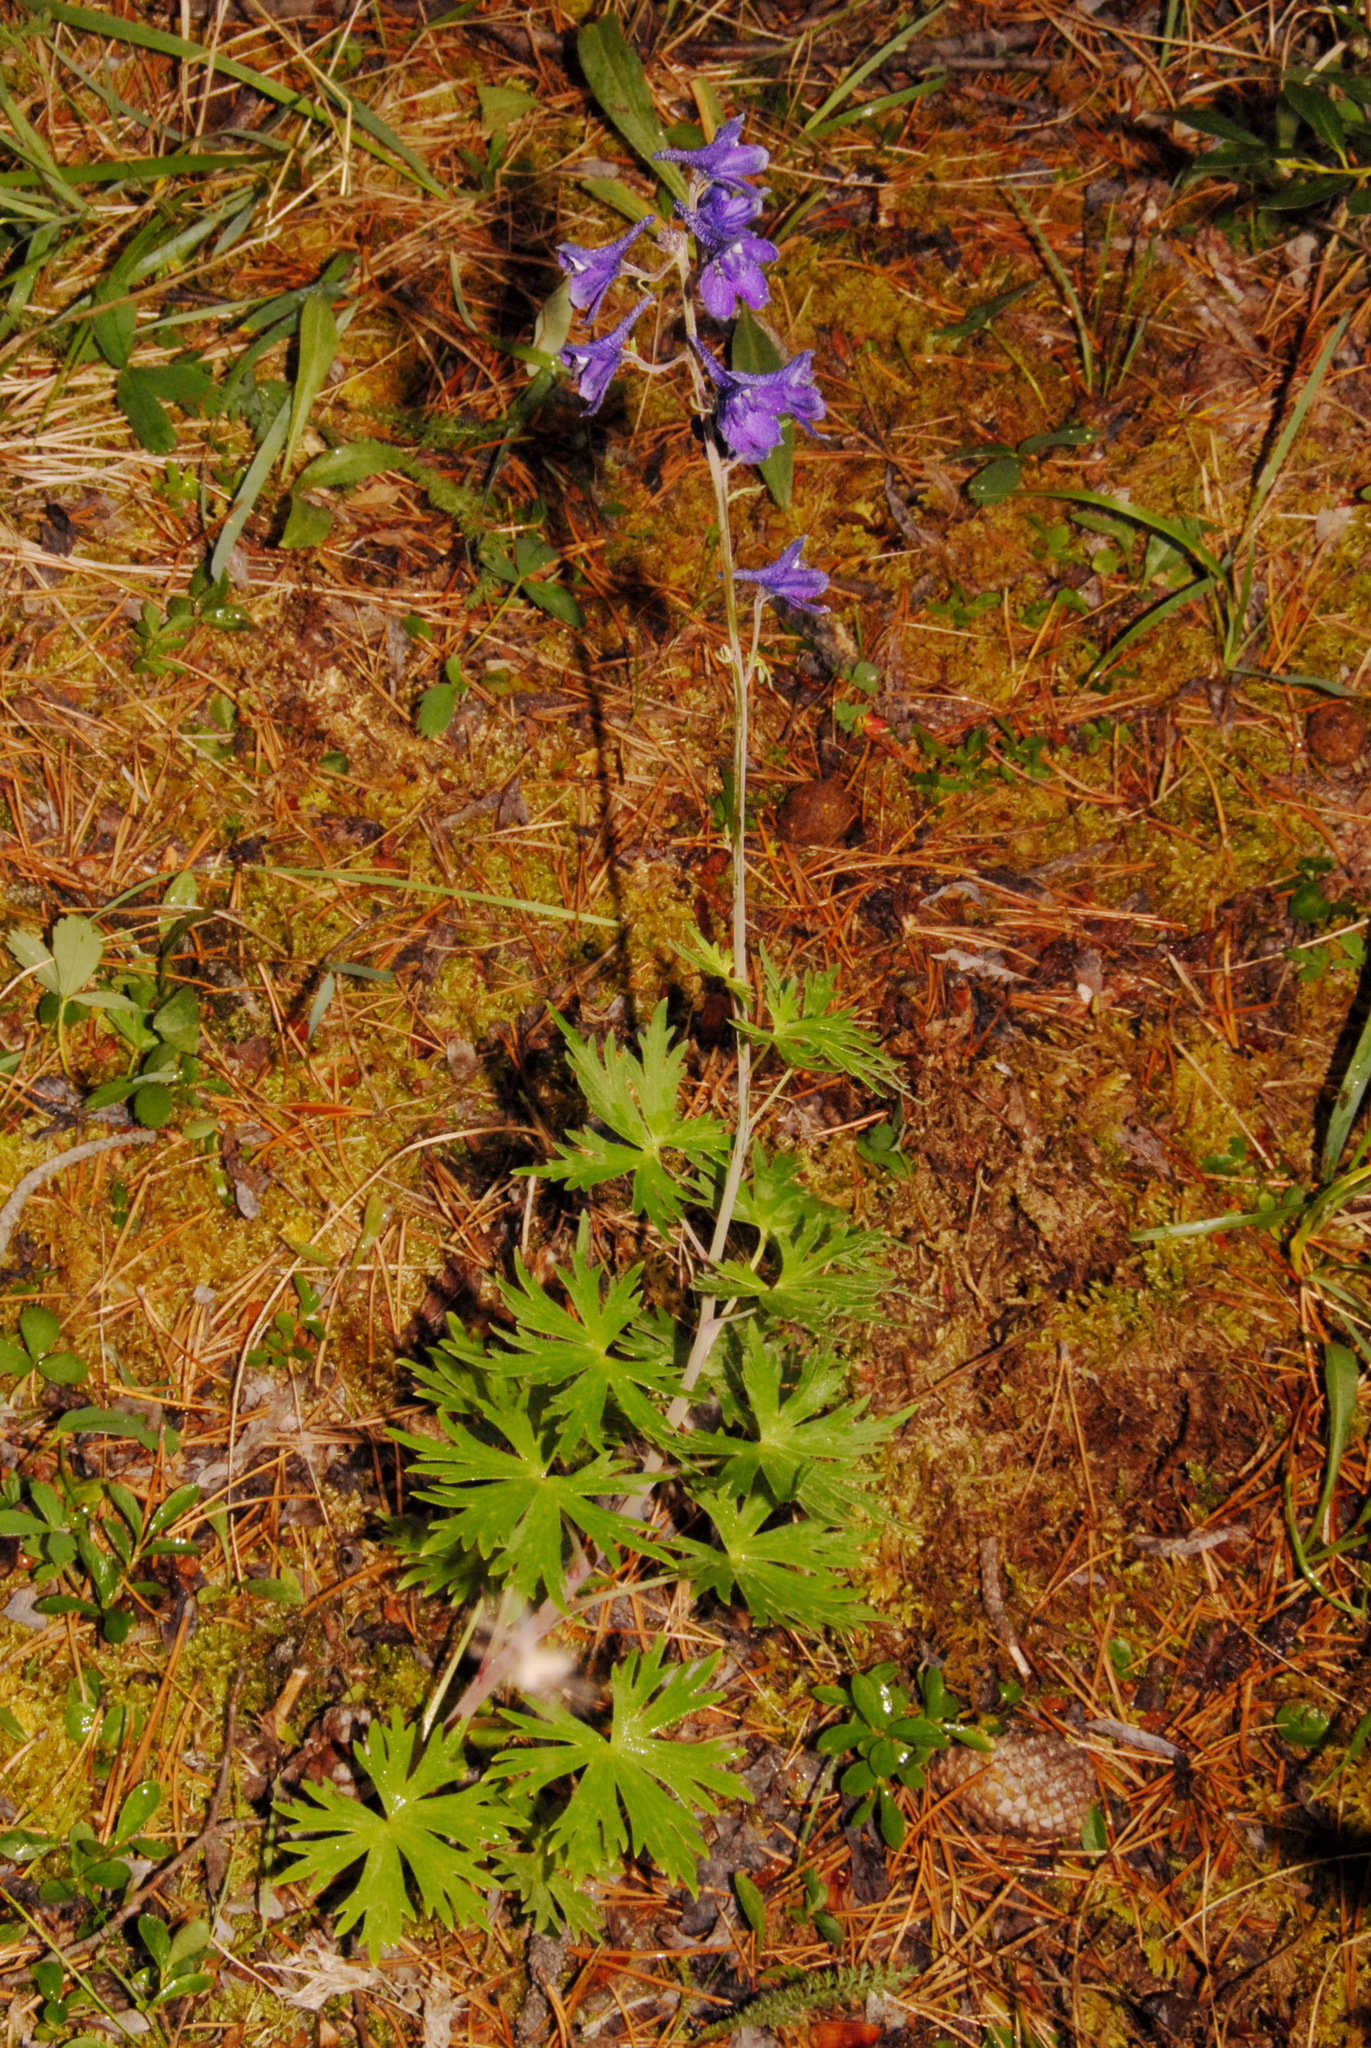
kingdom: Plantae
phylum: Tracheophyta
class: Magnoliopsida
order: Ranunculales
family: Ranunculaceae
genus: Delphinium
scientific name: Delphinium glaucum
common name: Brown's larkspur
